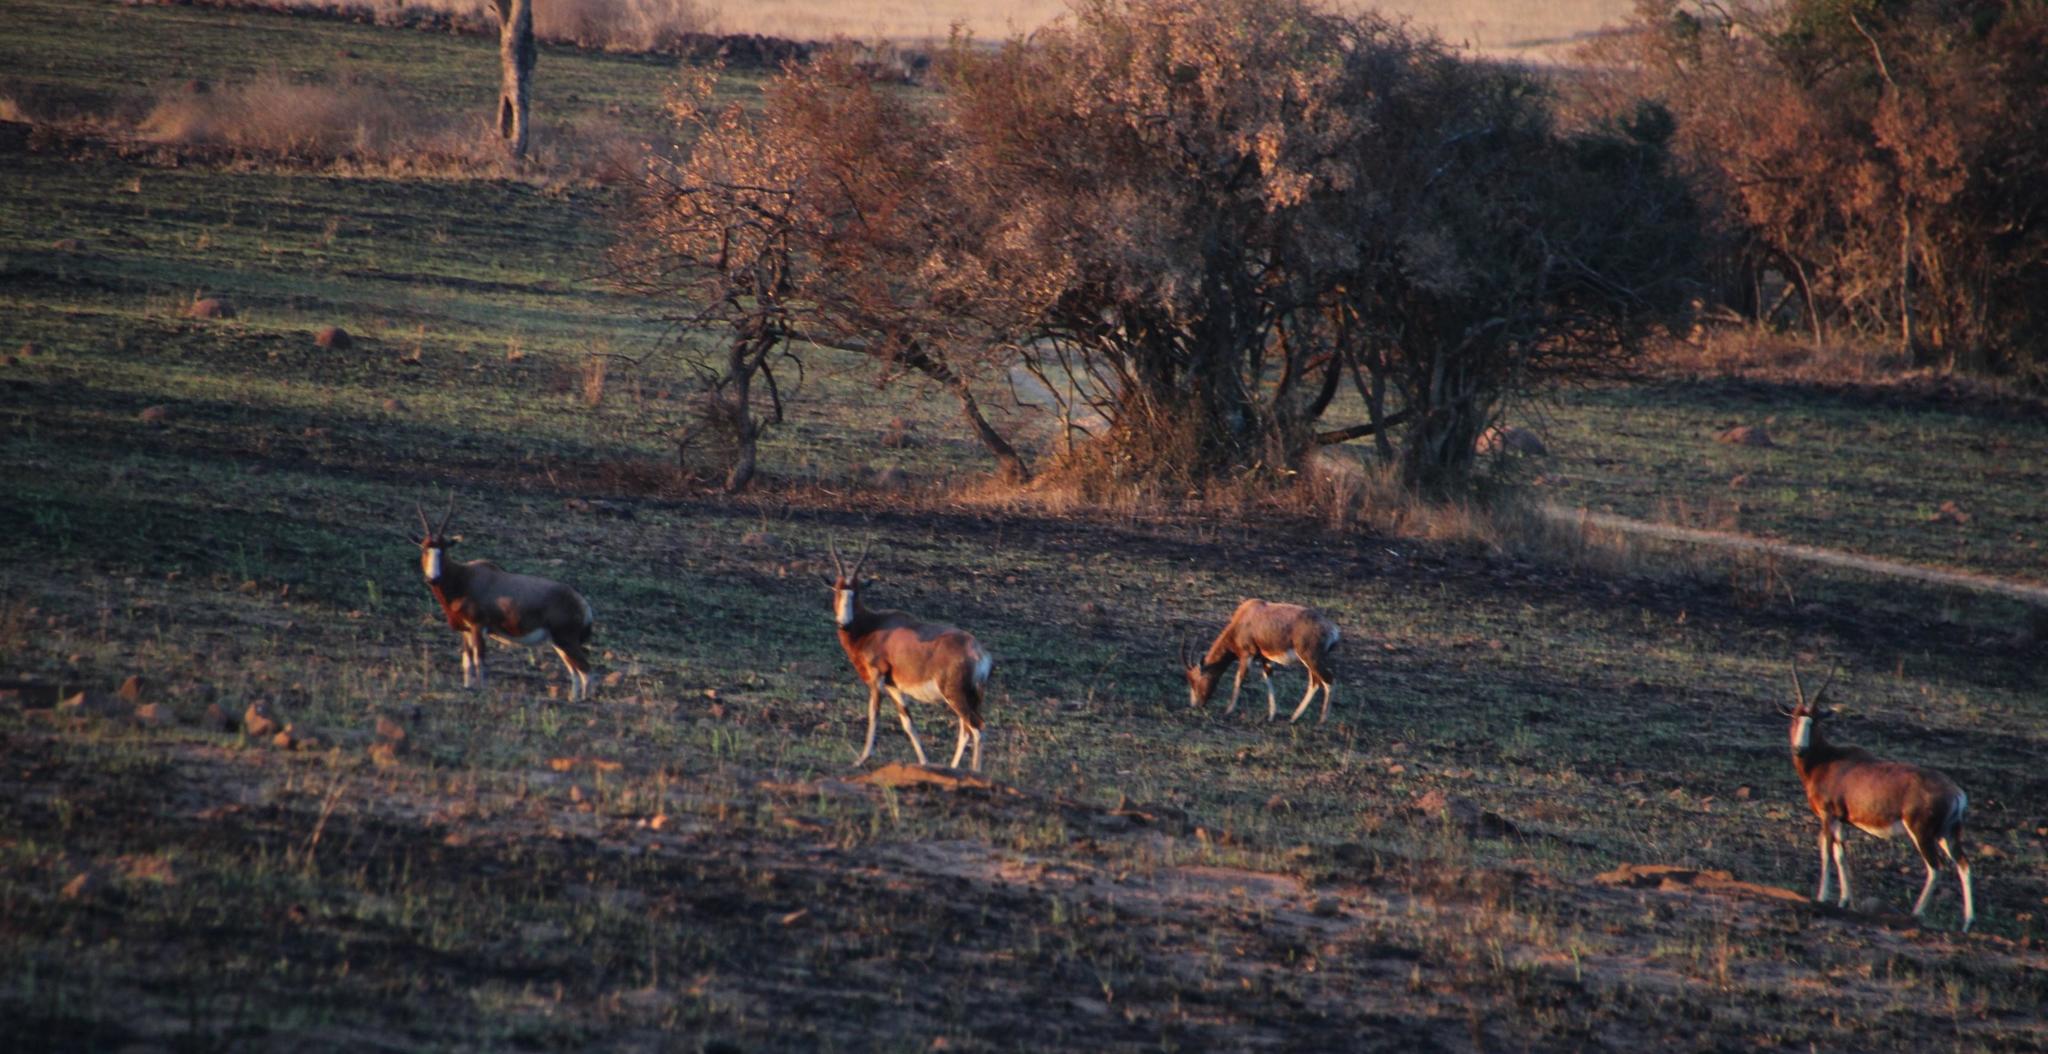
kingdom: Animalia
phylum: Chordata
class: Mammalia
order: Artiodactyla
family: Bovidae
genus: Damaliscus
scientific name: Damaliscus pygargus
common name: Bontebok
